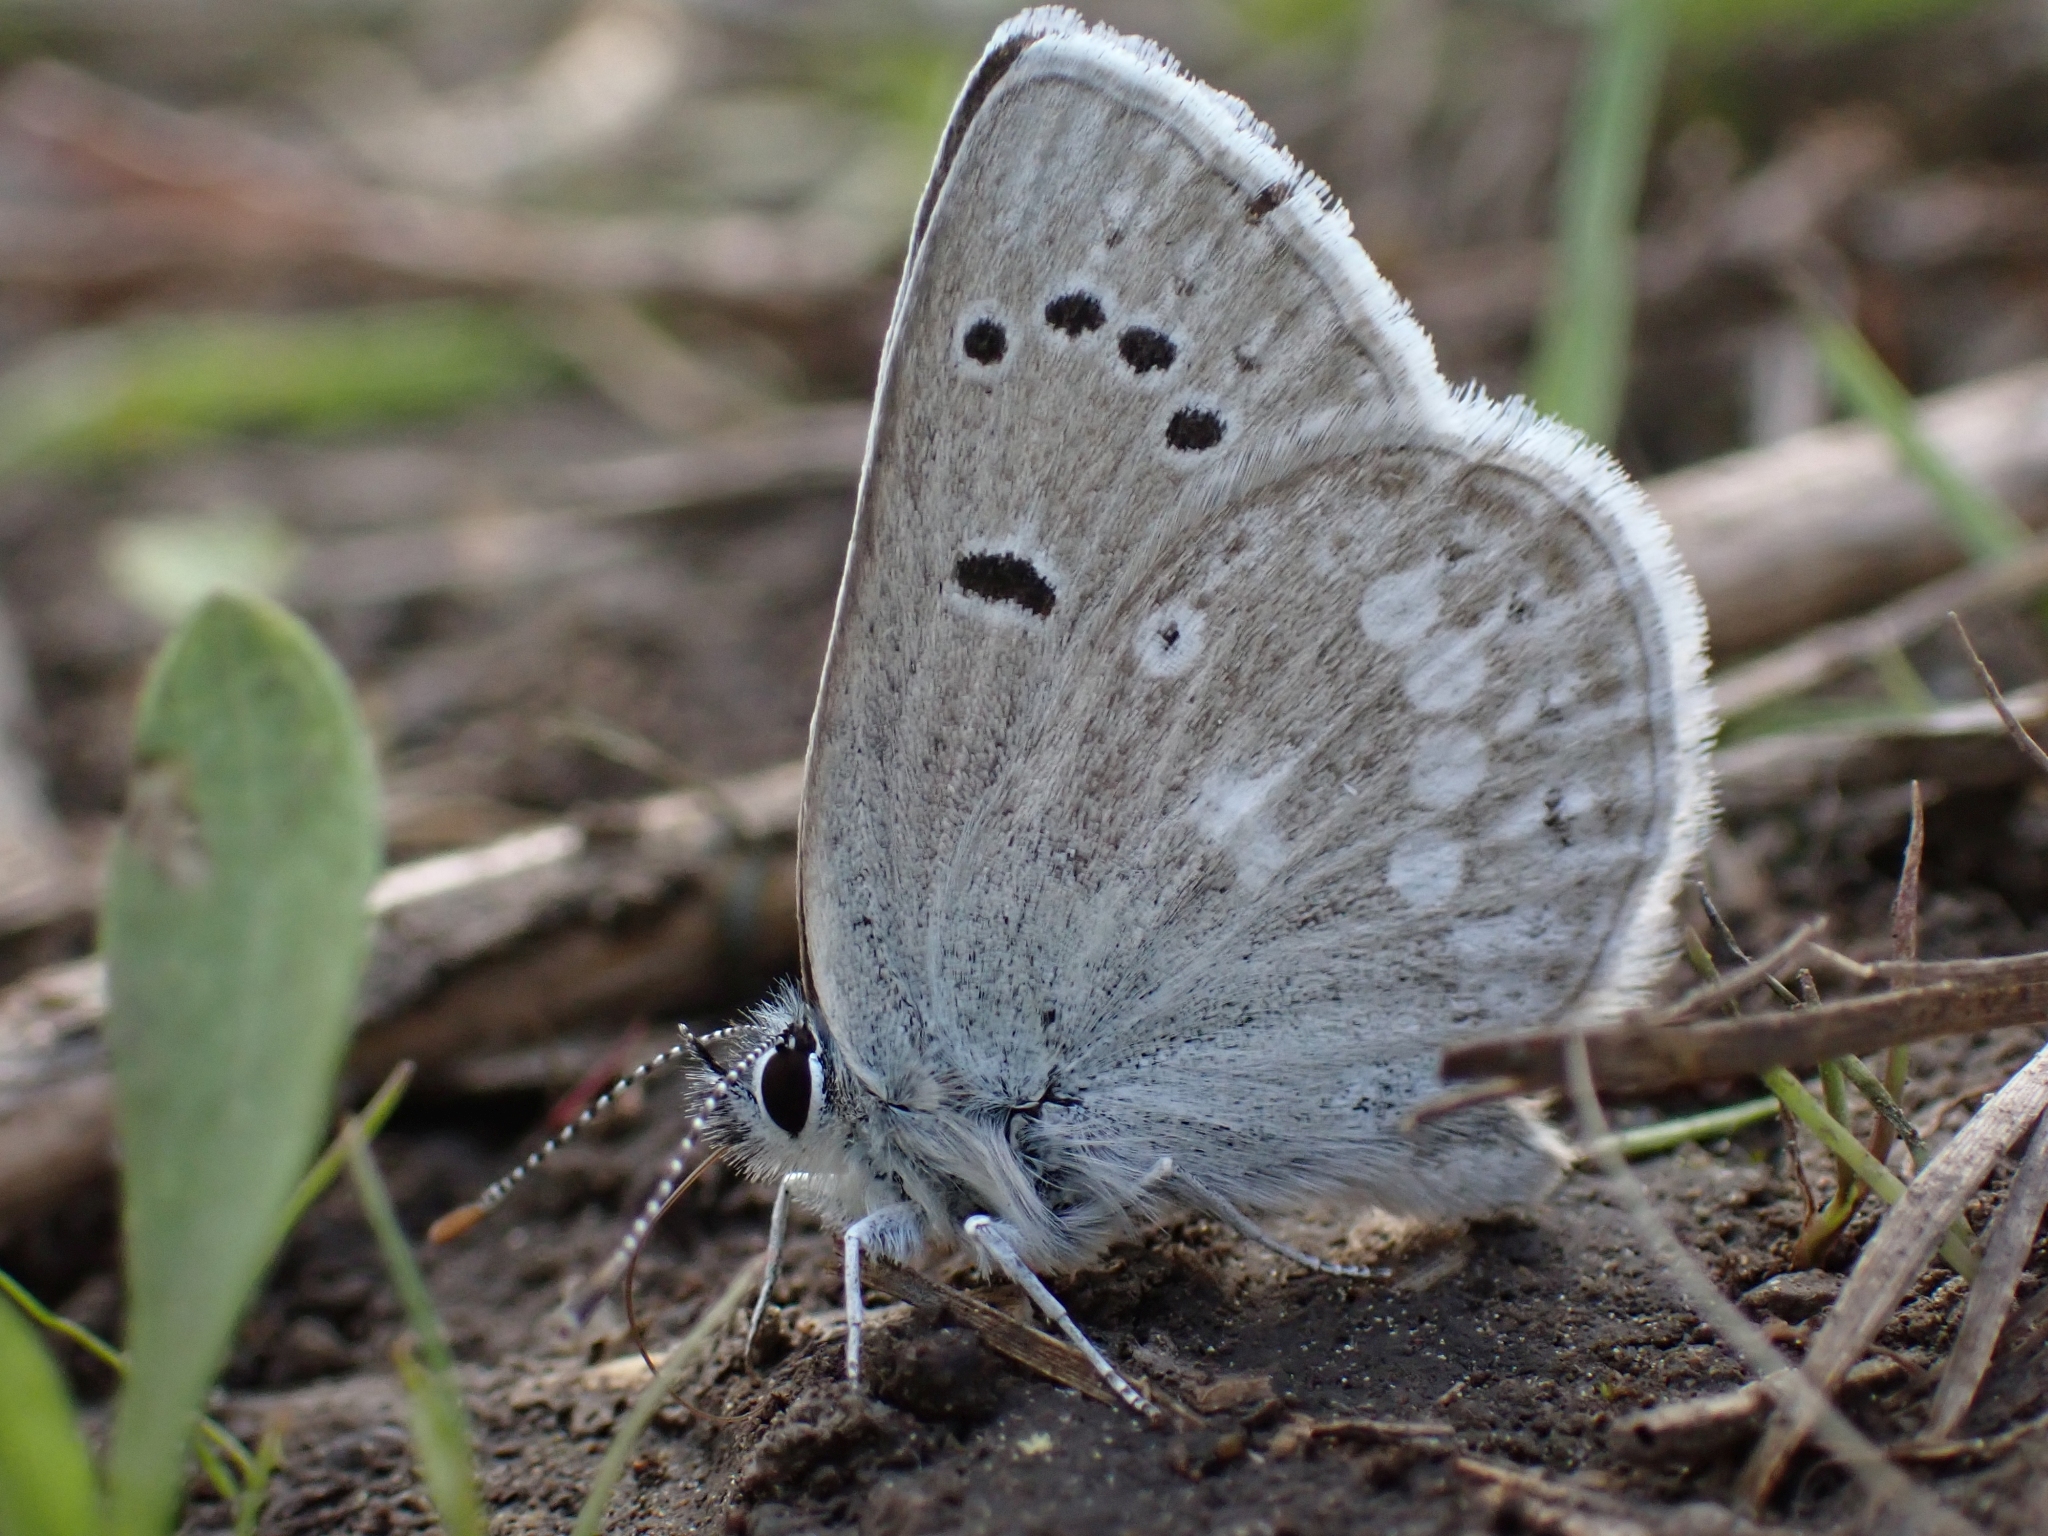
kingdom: Animalia
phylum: Arthropoda
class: Insecta
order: Lepidoptera
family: Lycaenidae
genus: Icaricia
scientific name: Icaricia icarioides
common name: Boisduval's blue
